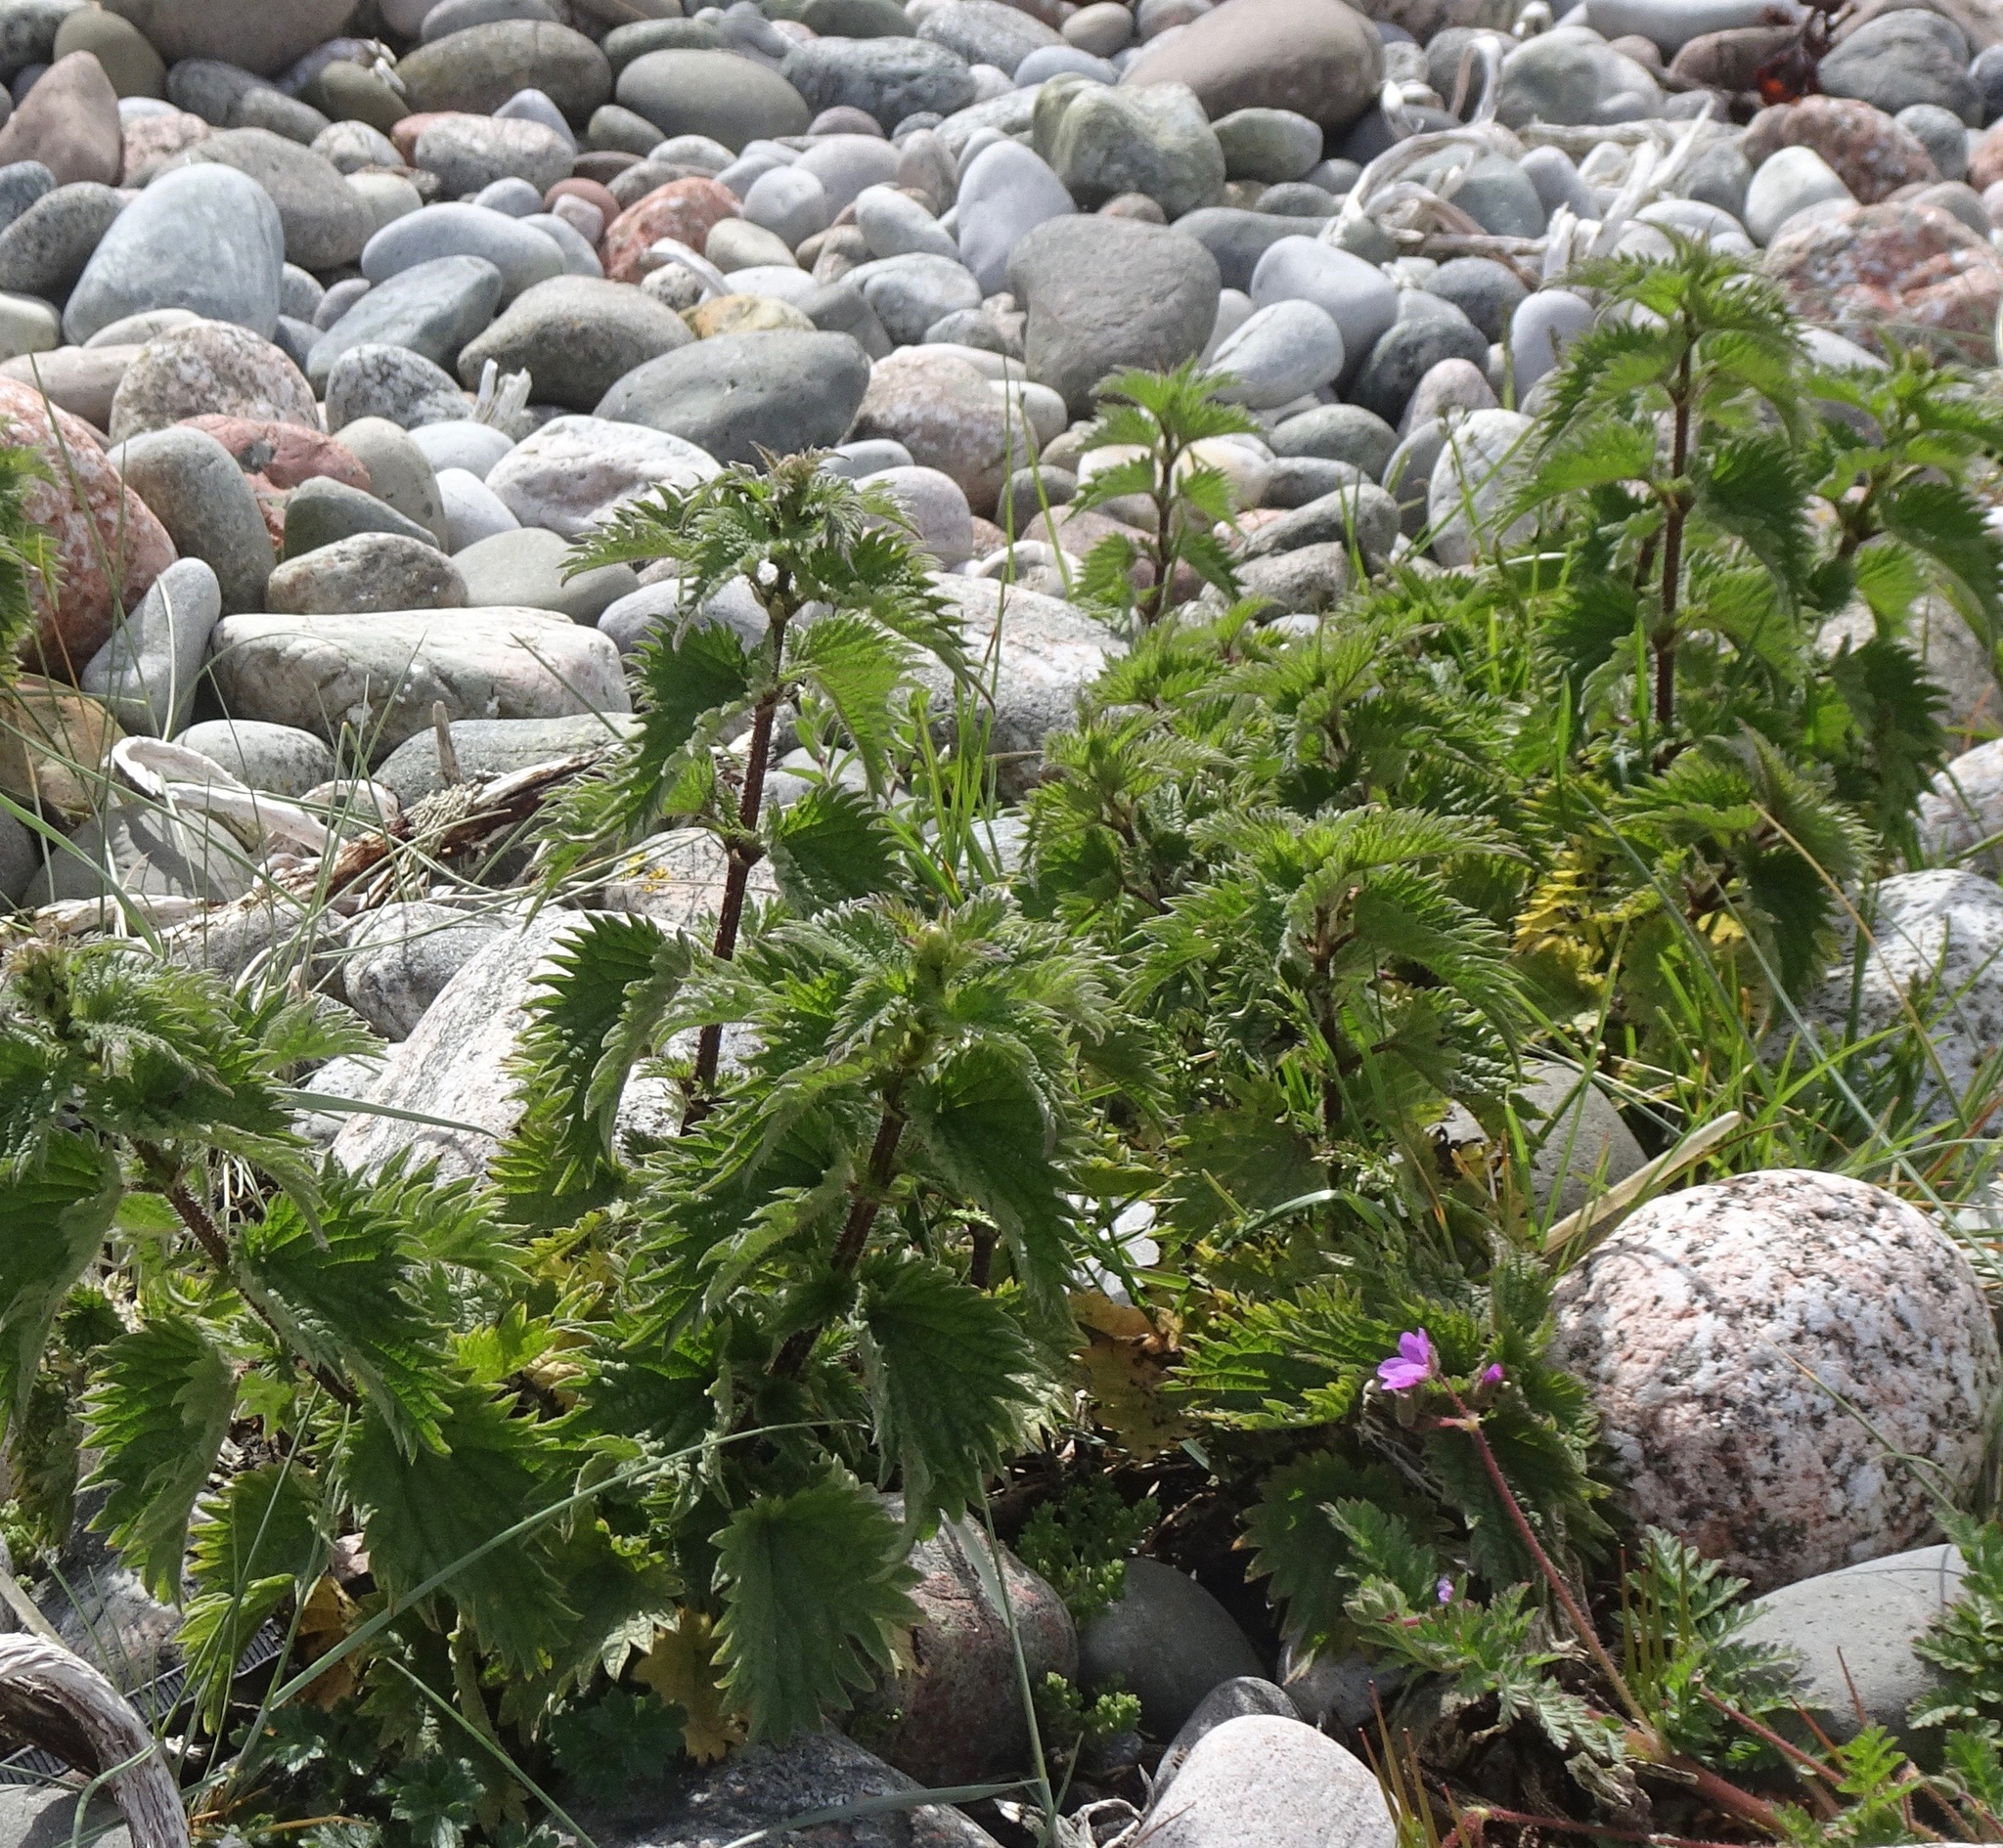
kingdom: Plantae
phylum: Tracheophyta
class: Magnoliopsida
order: Rosales
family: Urticaceae
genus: Urtica
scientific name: Urtica dioica
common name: Common nettle
